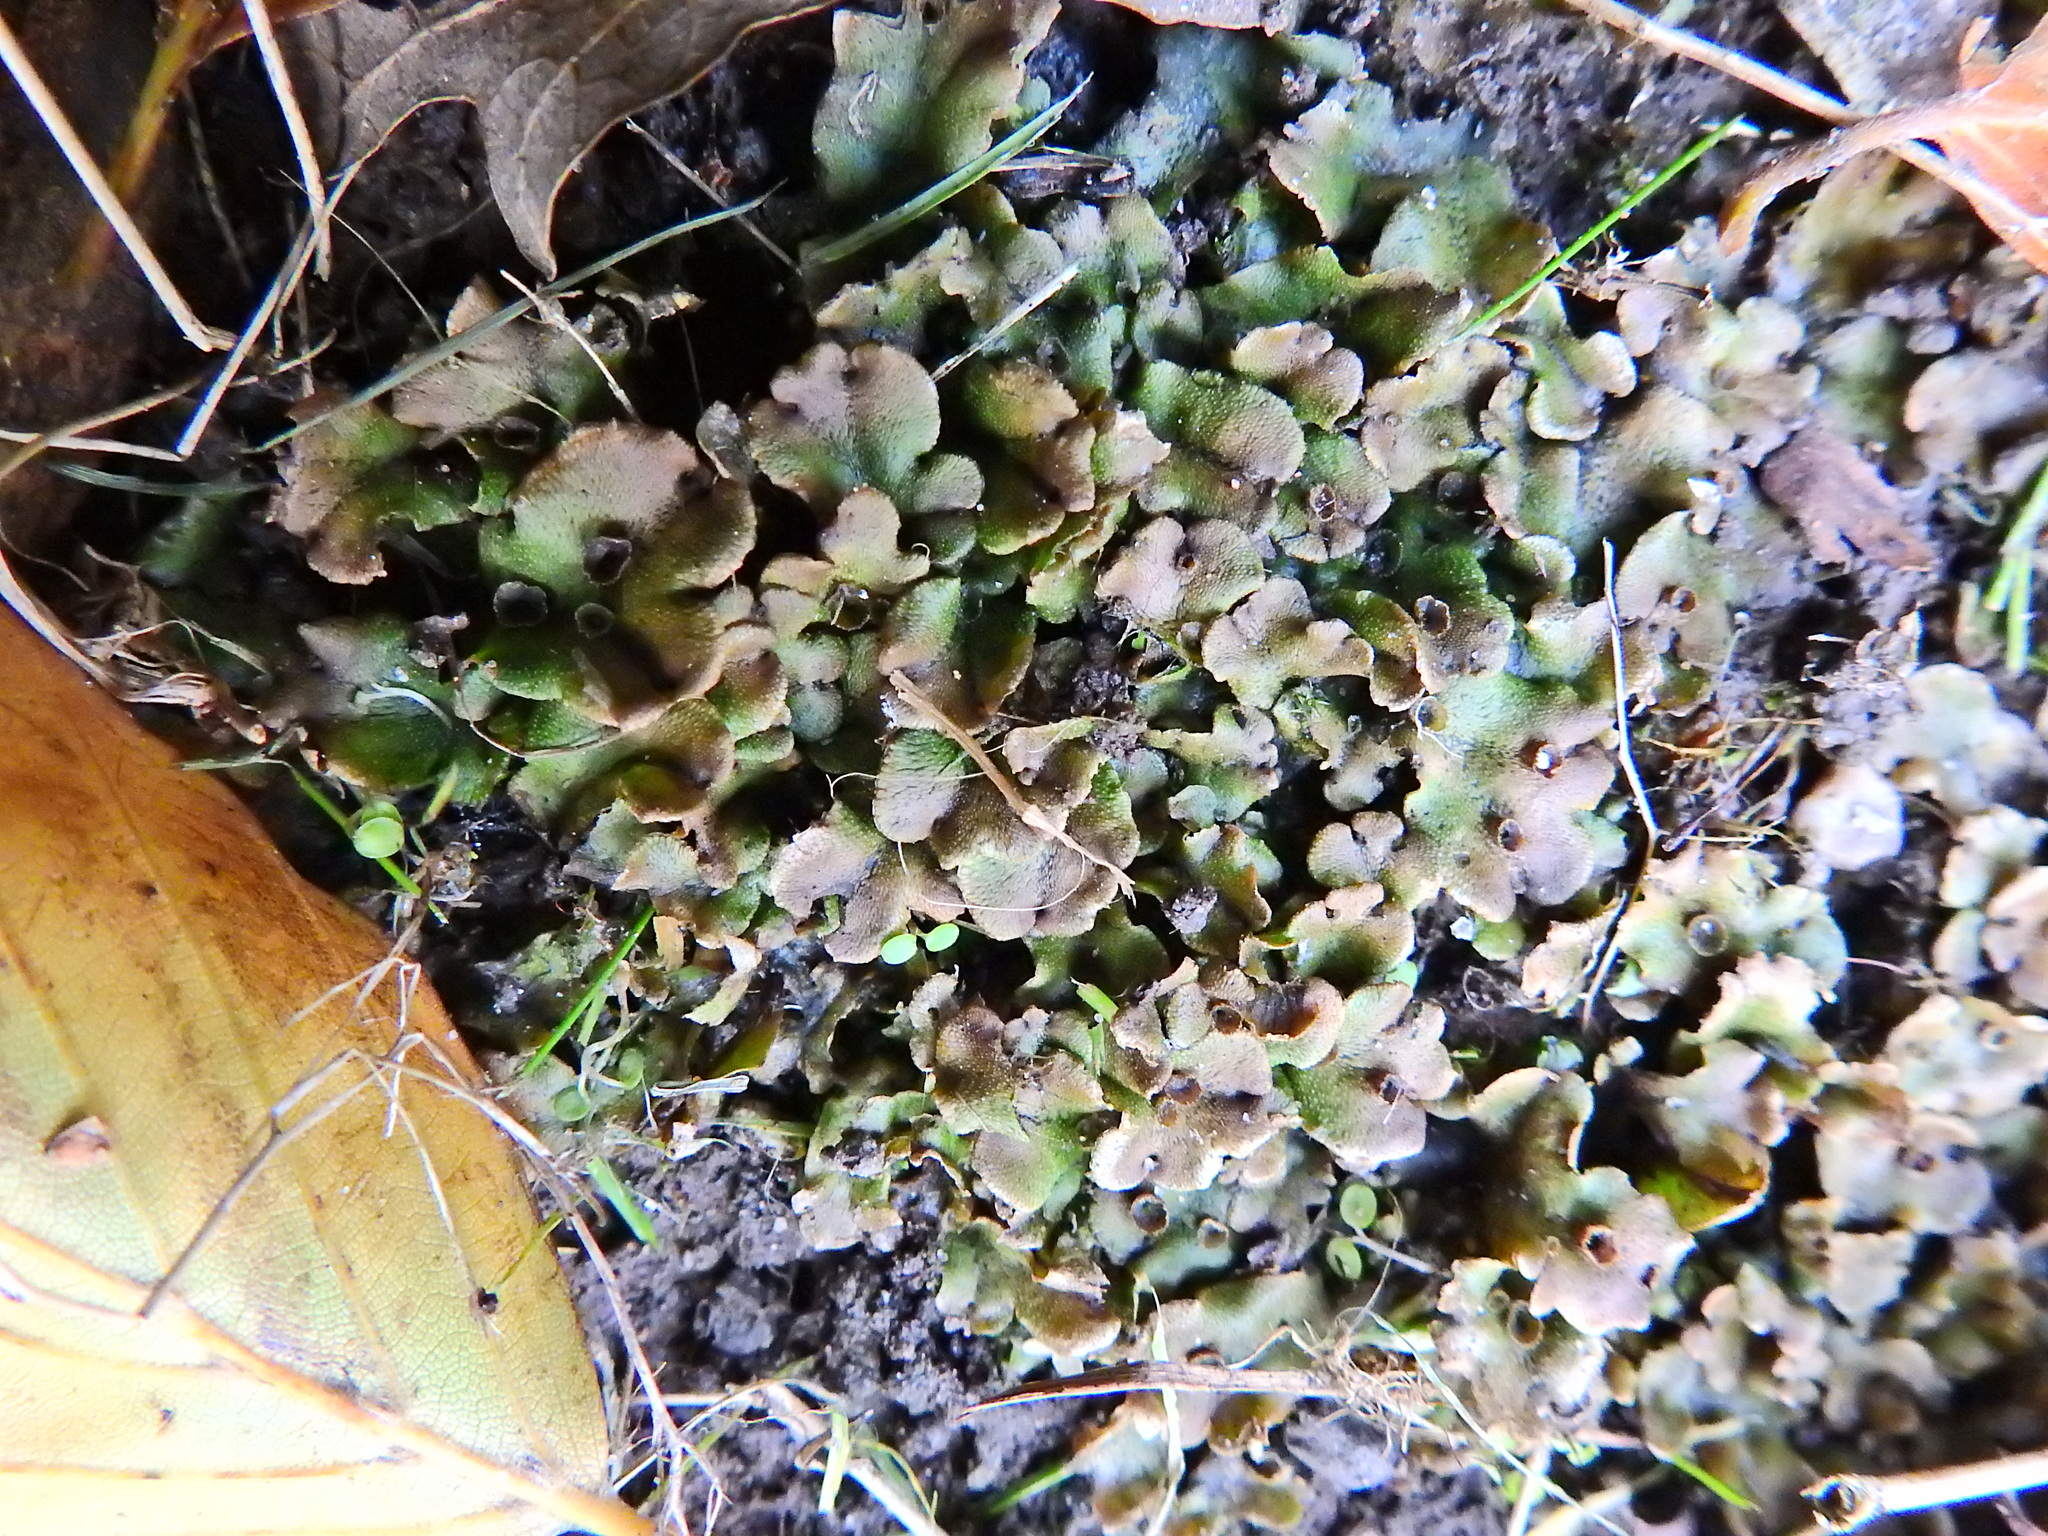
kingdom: Plantae
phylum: Marchantiophyta
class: Marchantiopsida
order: Marchantiales
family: Marchantiaceae
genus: Marchantia
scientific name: Marchantia polymorpha
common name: Common liverwort
